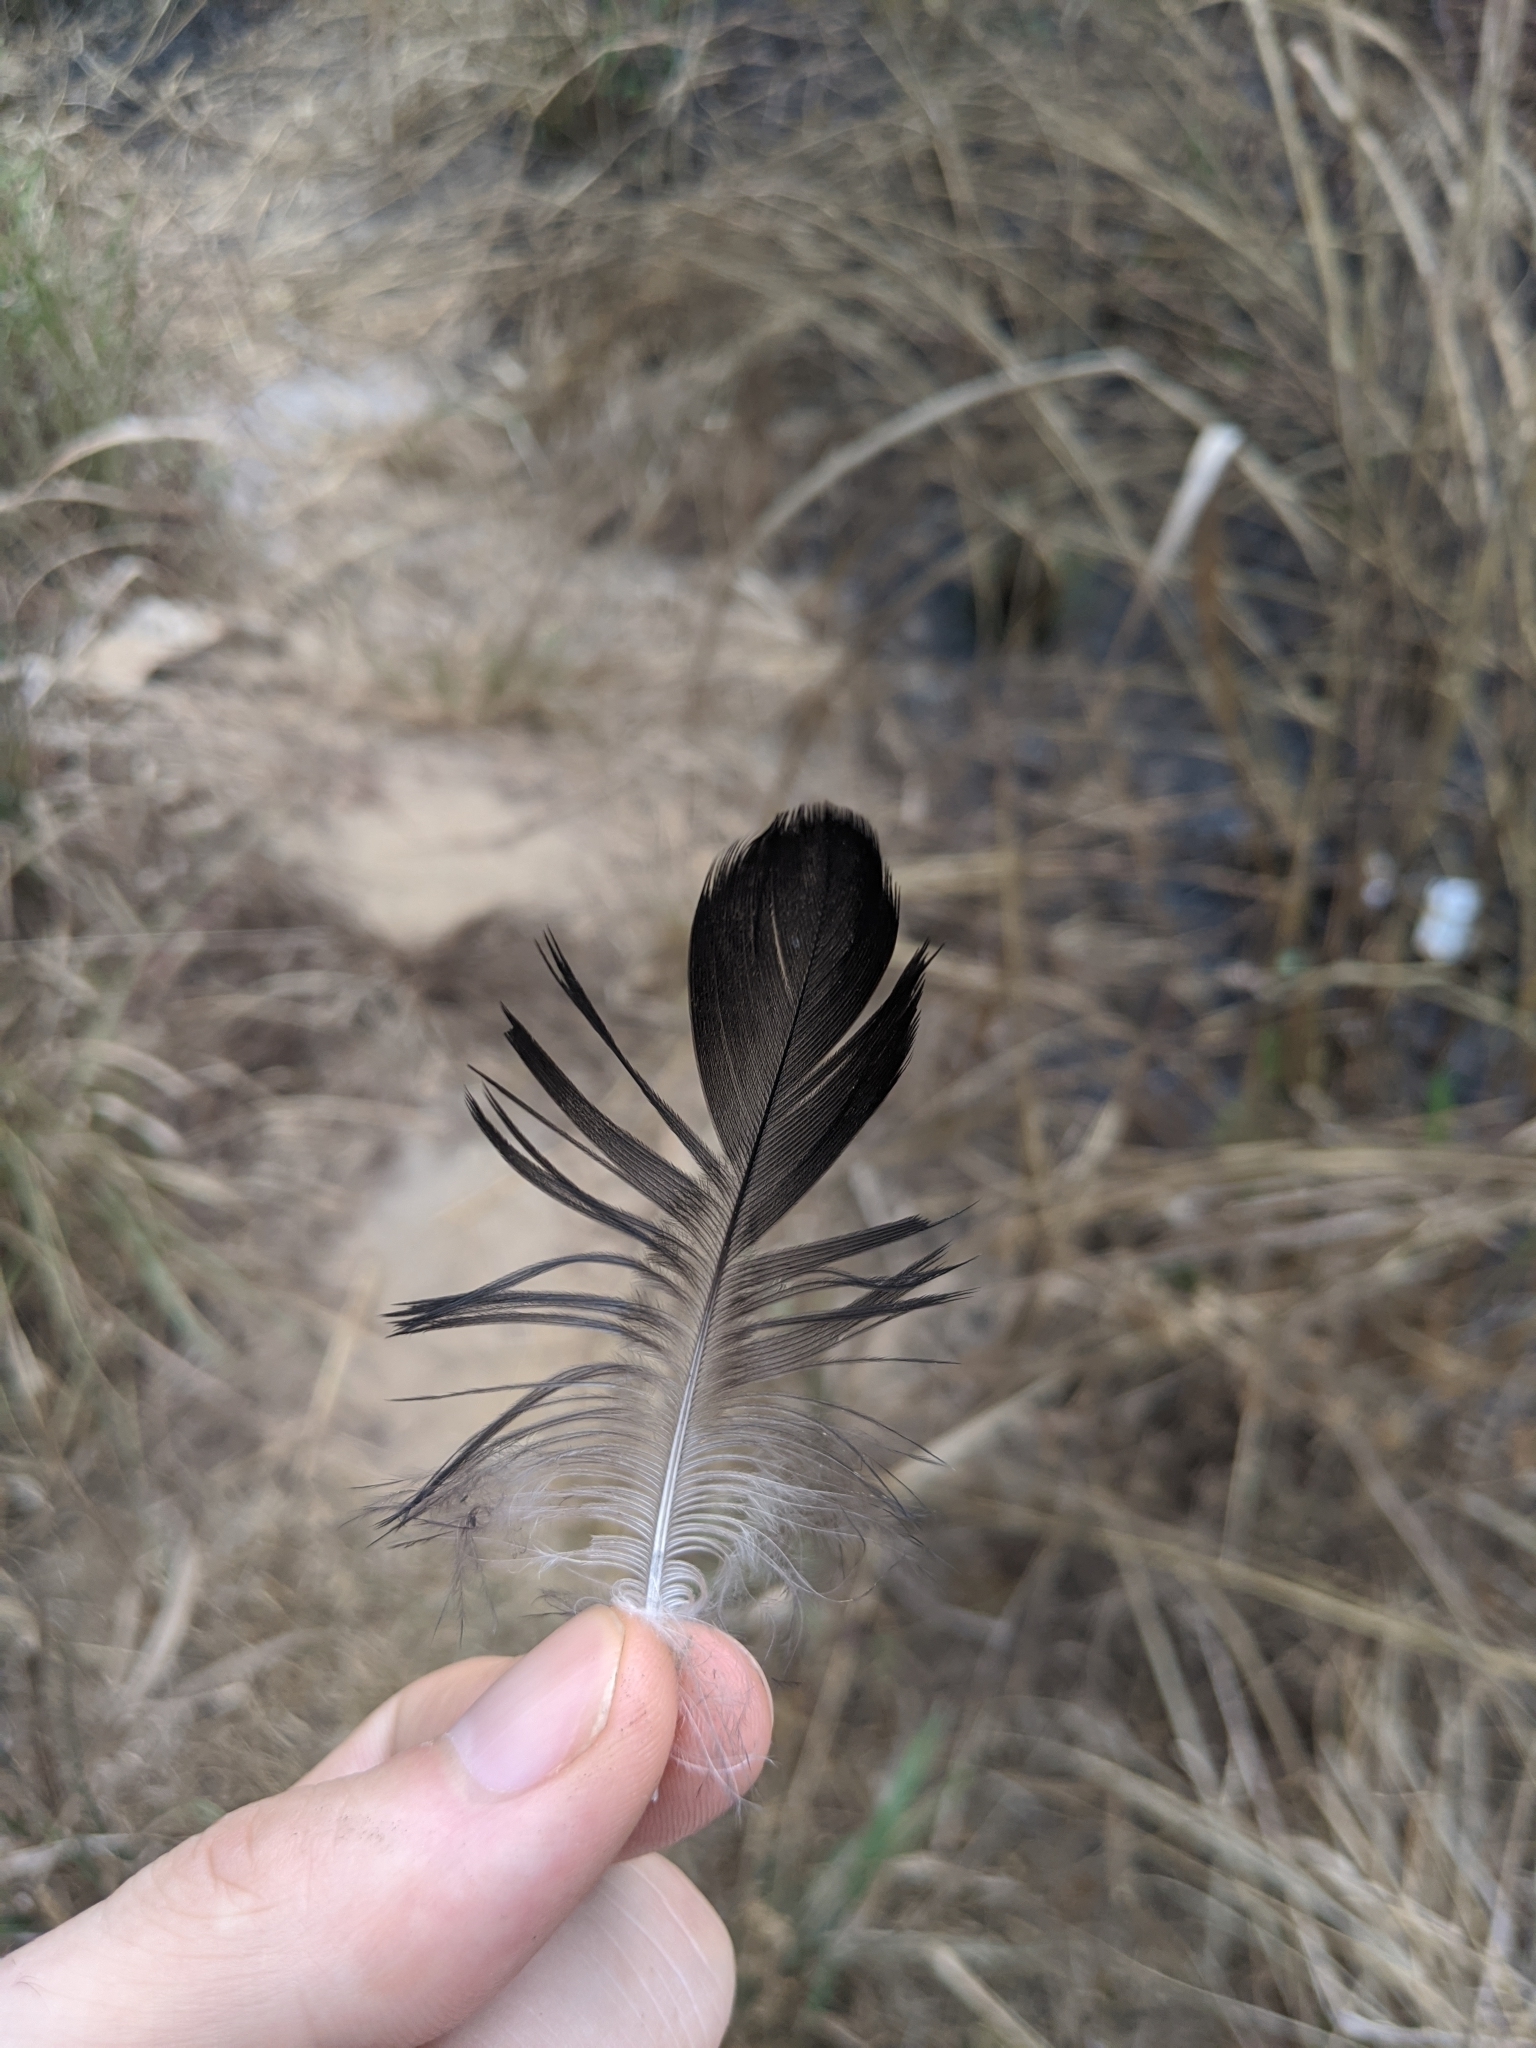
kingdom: Animalia
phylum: Chordata
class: Aves
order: Passeriformes
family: Corvidae
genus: Corvus
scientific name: Corvus albus
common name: Pied crow
